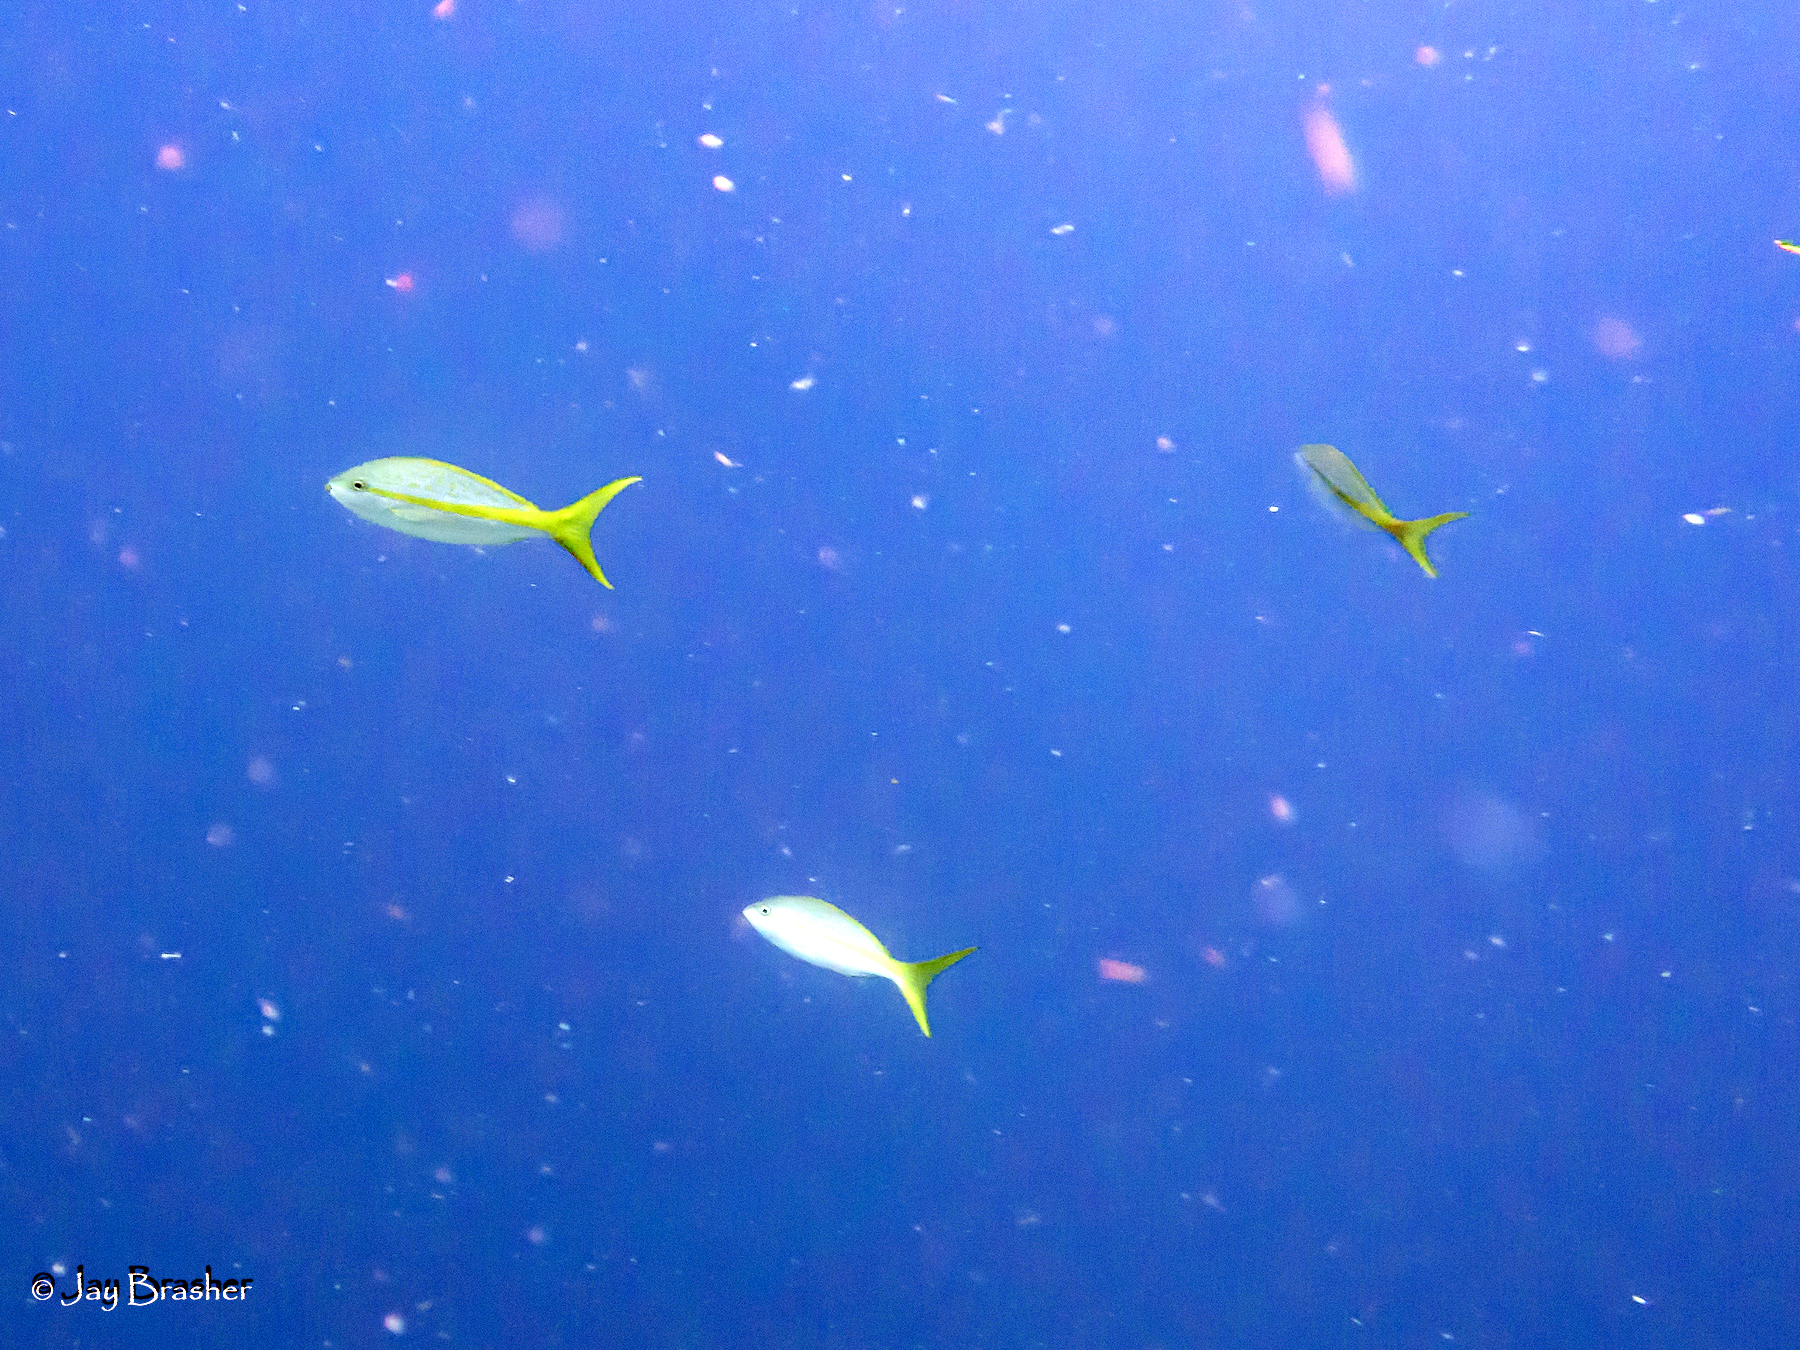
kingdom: Animalia
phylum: Chordata
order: Perciformes
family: Lutjanidae
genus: Ocyurus
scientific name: Ocyurus chrysurus
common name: Yellowtail snapper
